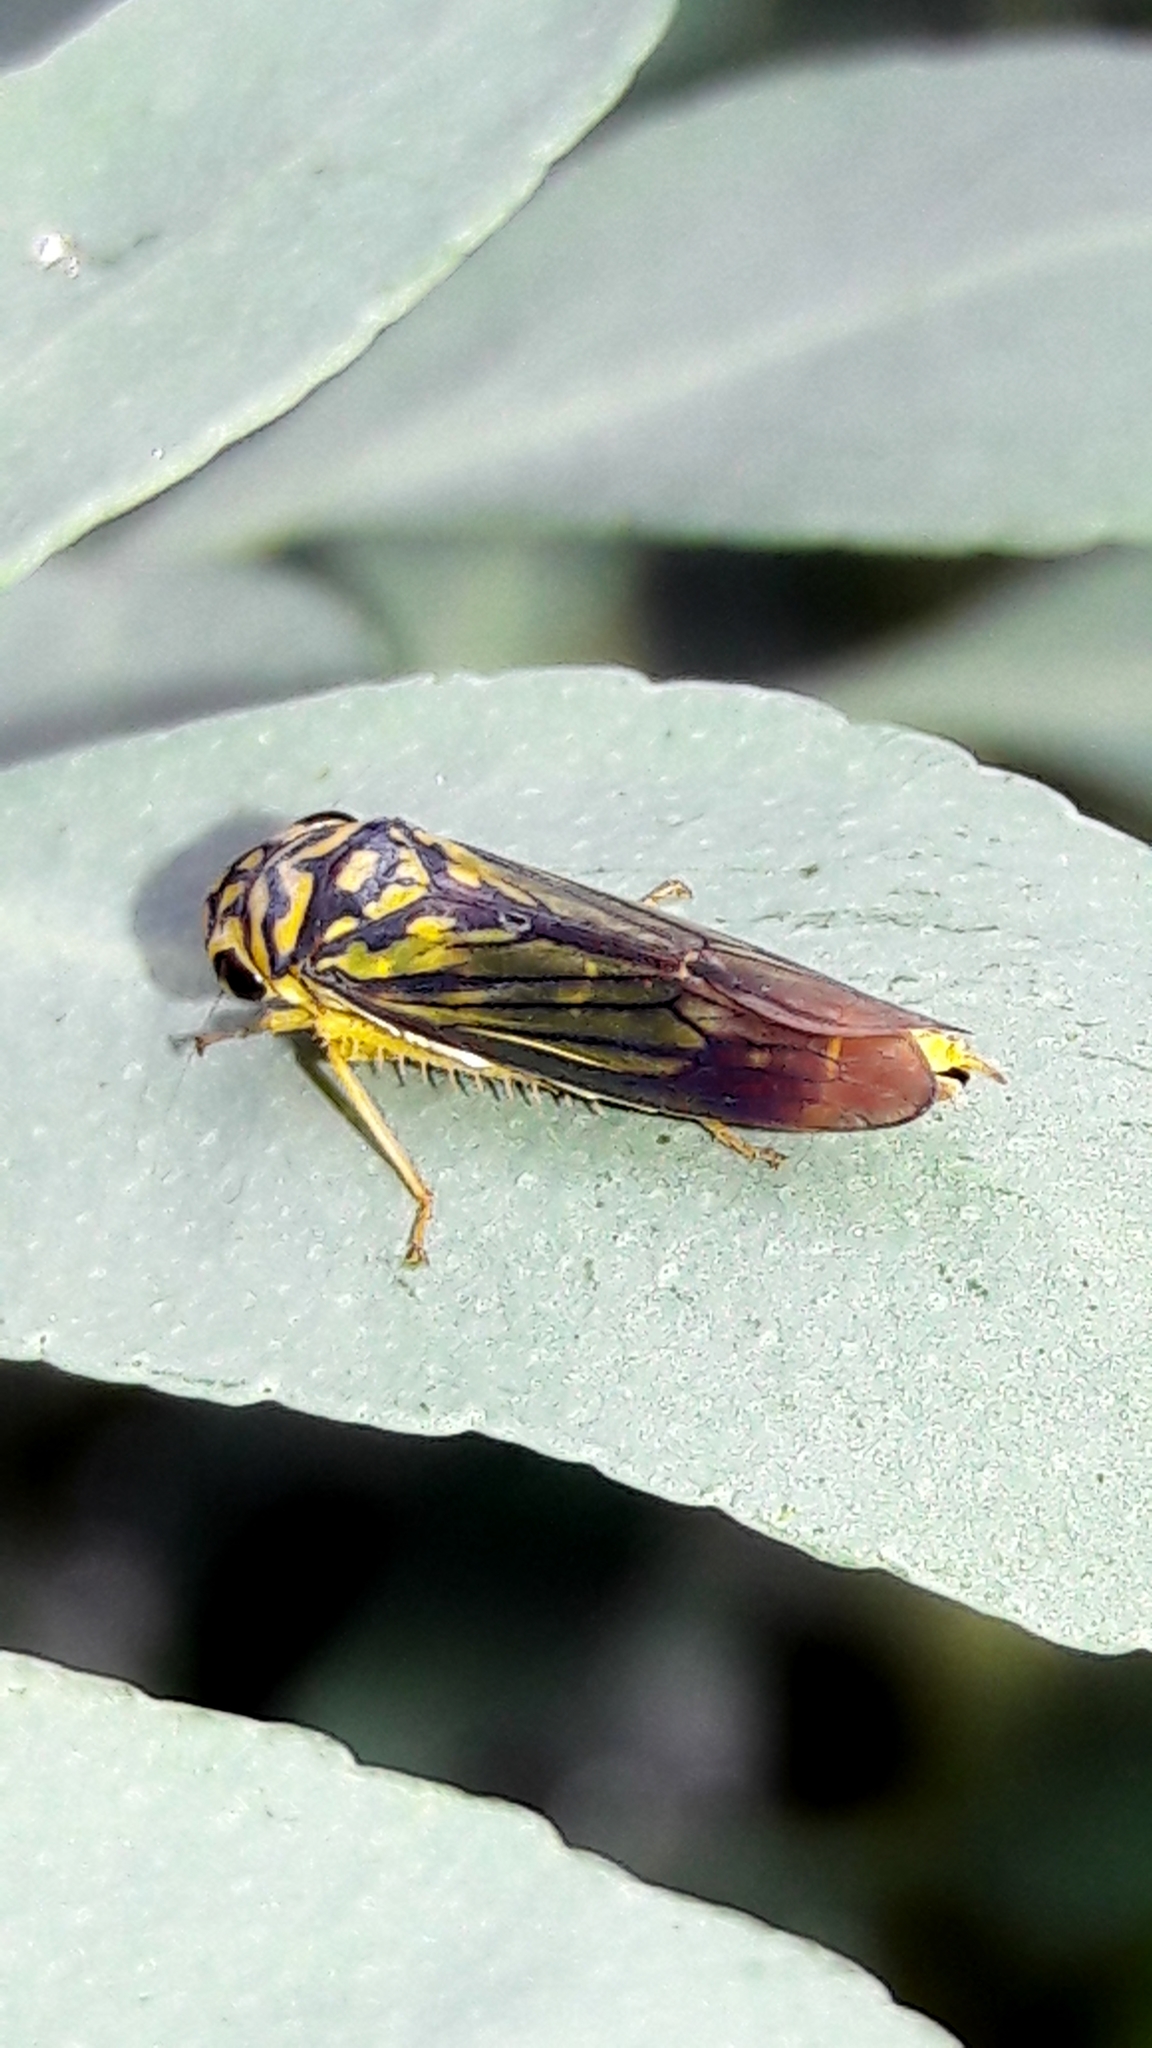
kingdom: Animalia
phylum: Arthropoda
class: Insecta
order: Hemiptera
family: Cicadellidae
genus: Dilobopterus
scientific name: Dilobopterus costalimai
